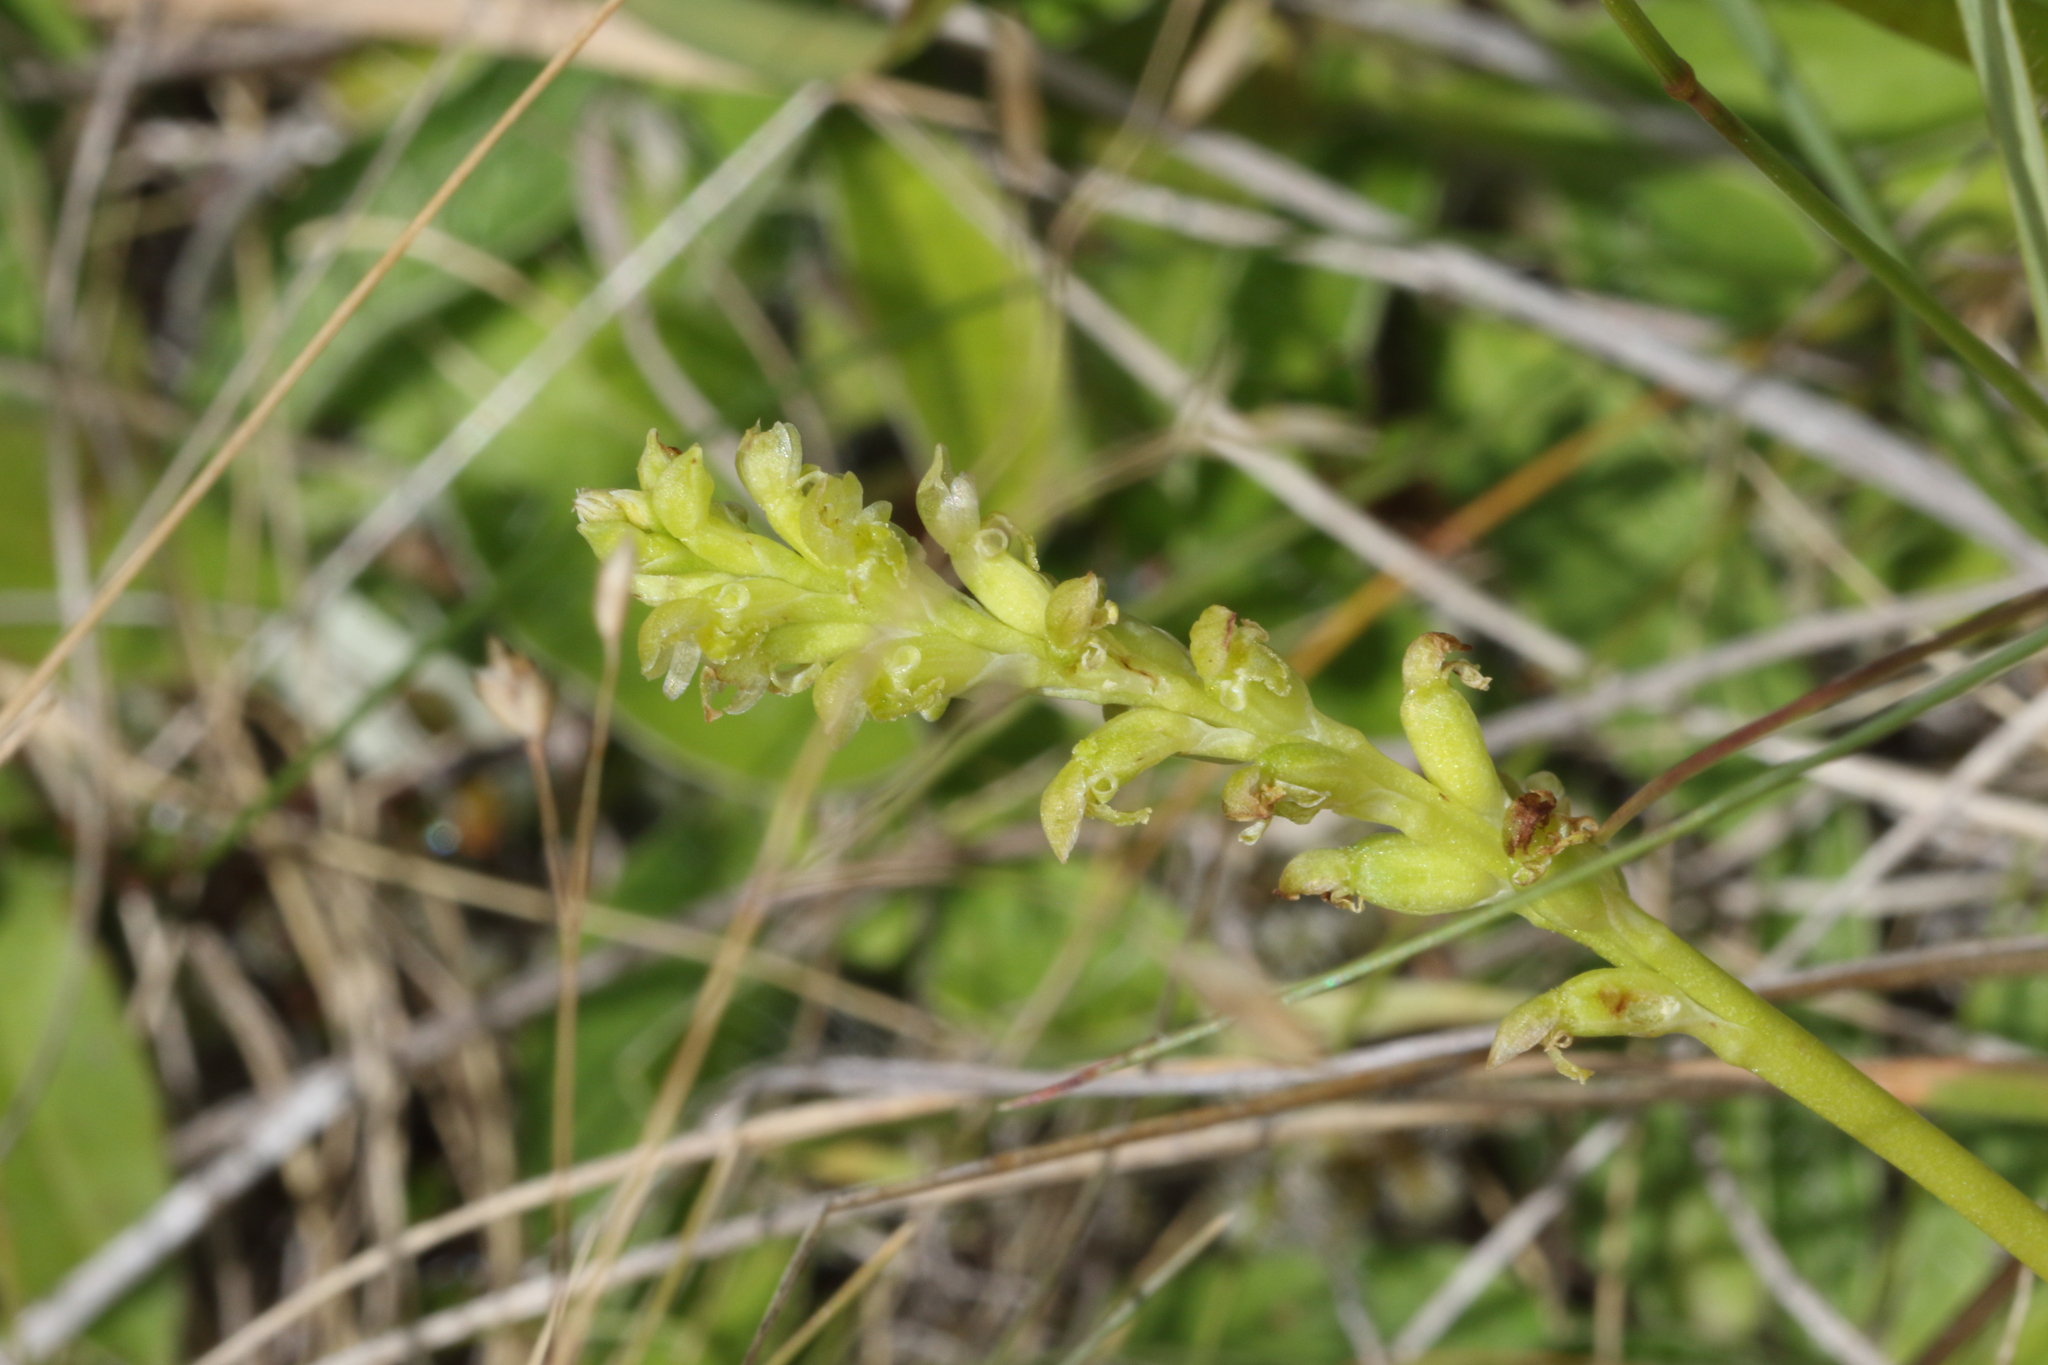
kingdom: Plantae
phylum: Tracheophyta
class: Liliopsida
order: Asparagales
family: Orchidaceae
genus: Microtis
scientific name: Microtis unifolia
